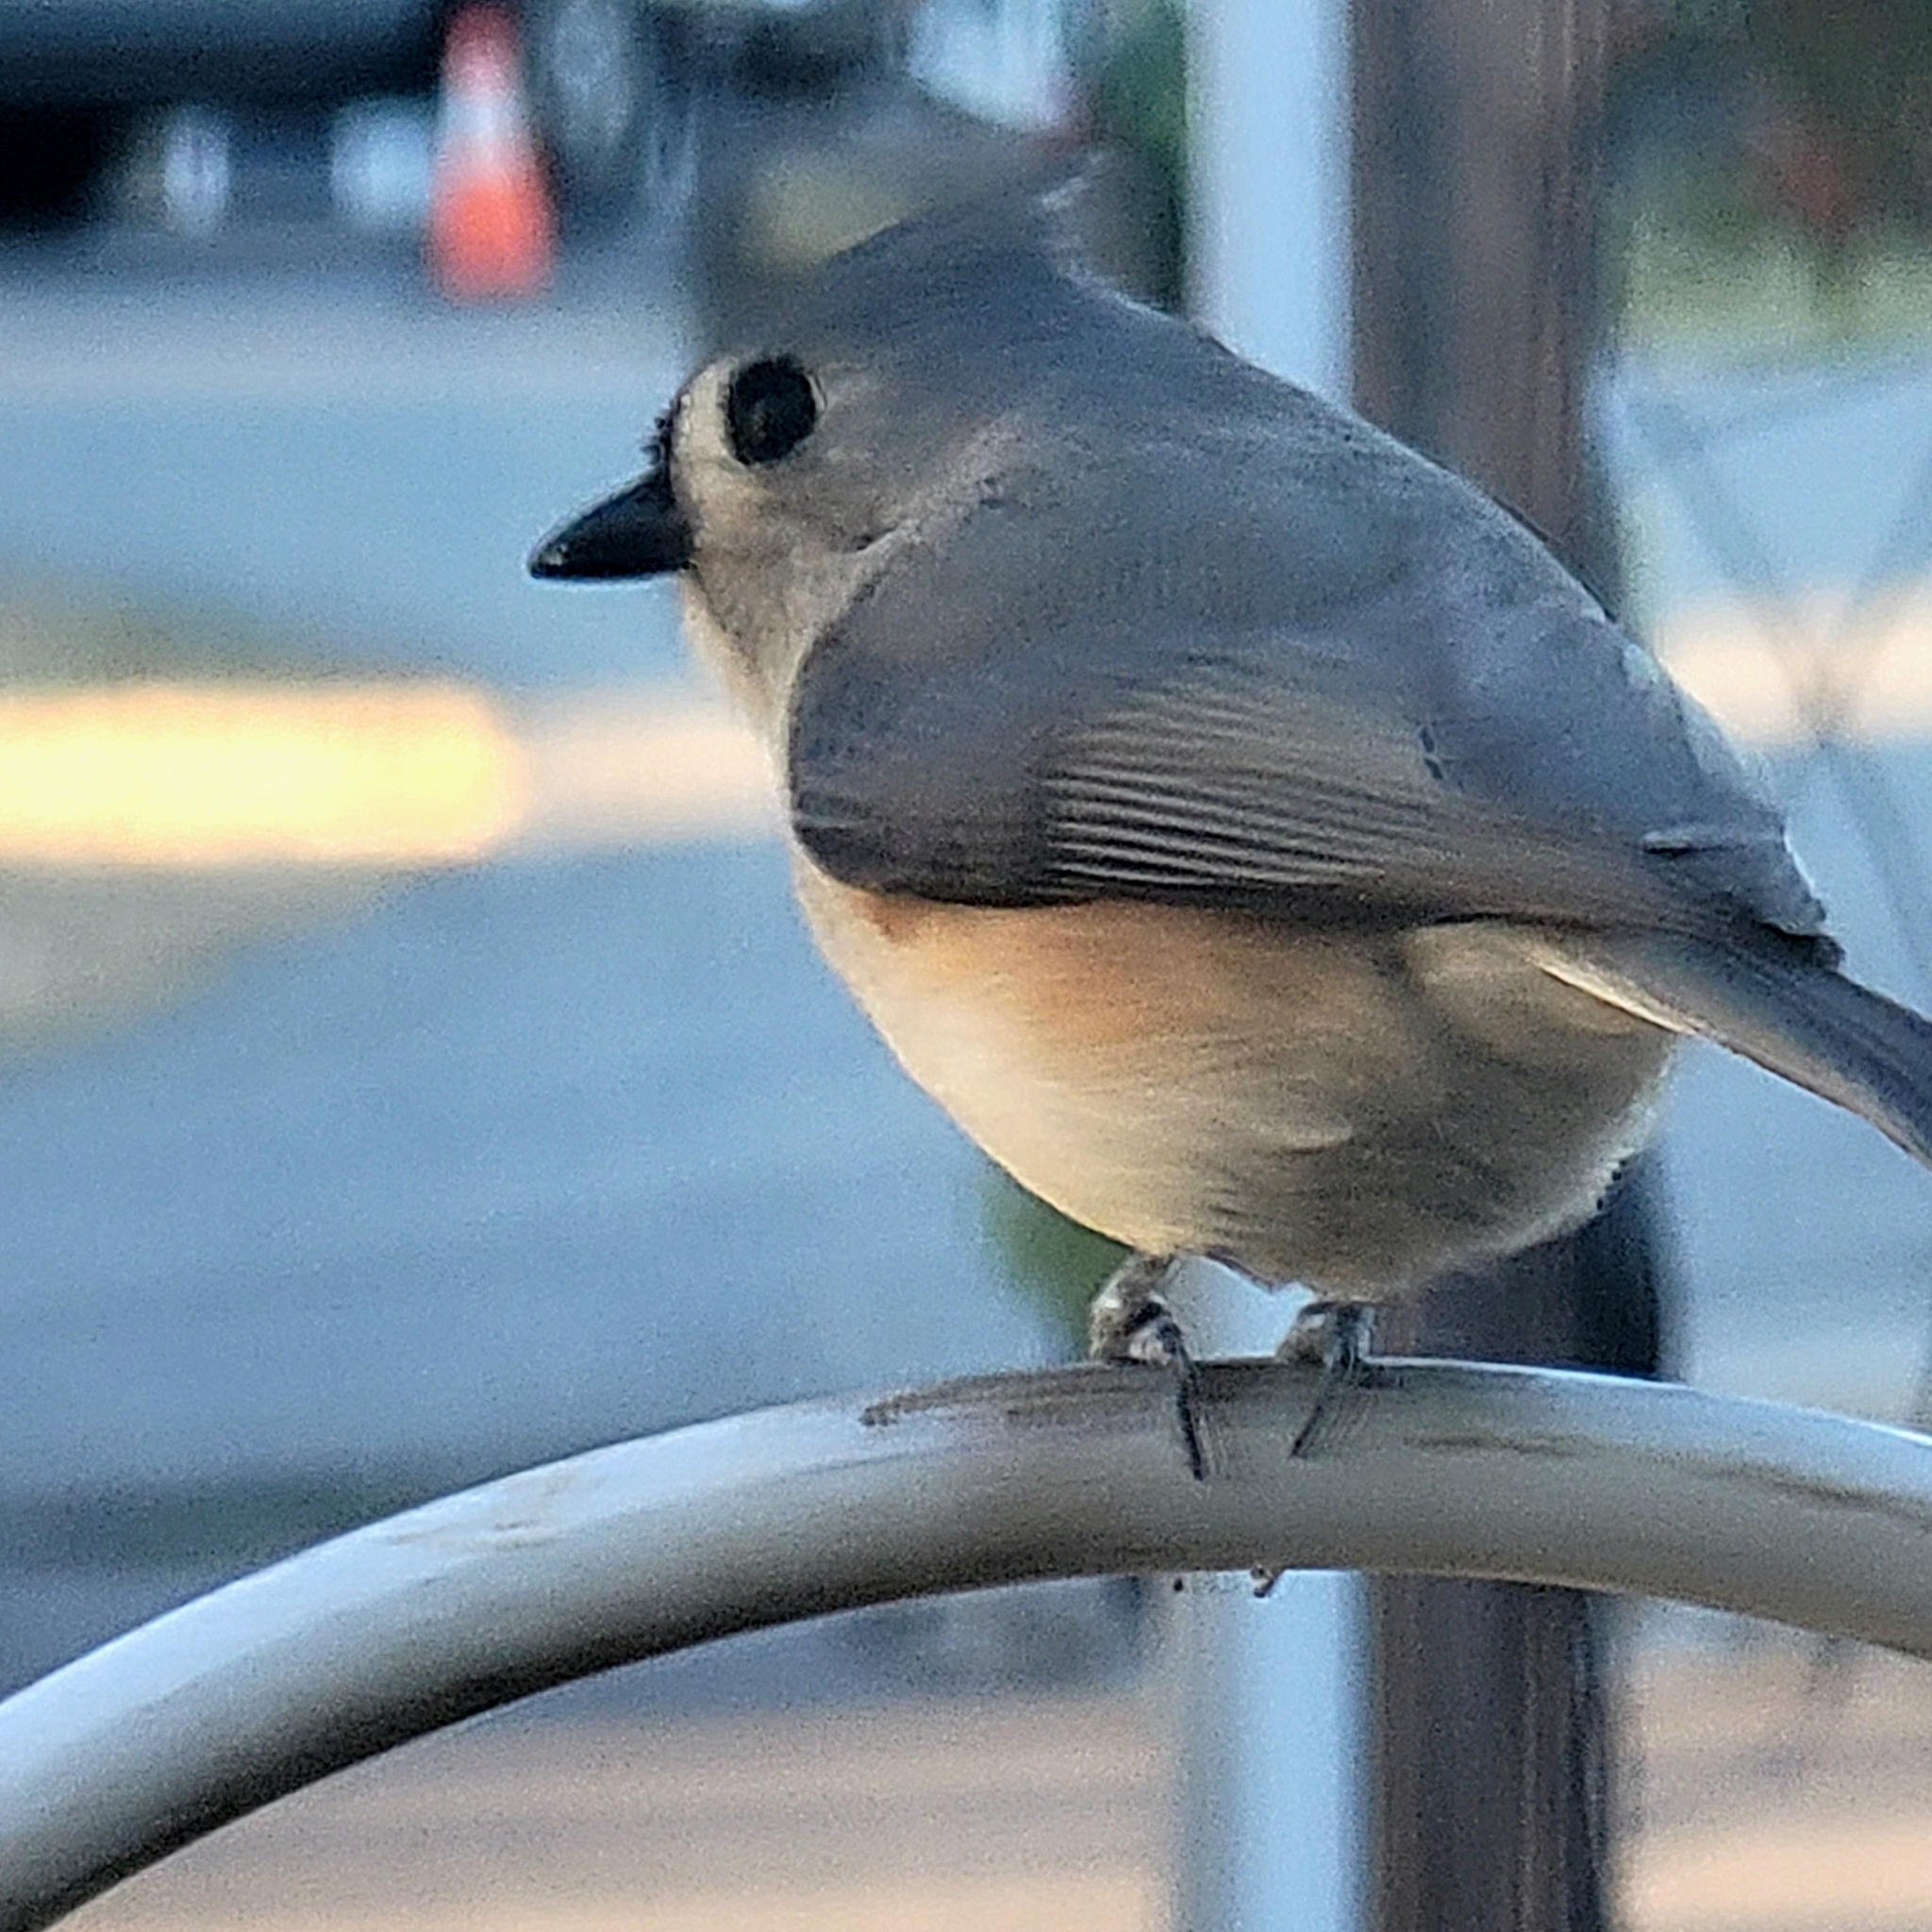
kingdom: Animalia
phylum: Chordata
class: Aves
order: Passeriformes
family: Paridae
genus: Baeolophus
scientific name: Baeolophus bicolor
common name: Tufted titmouse
